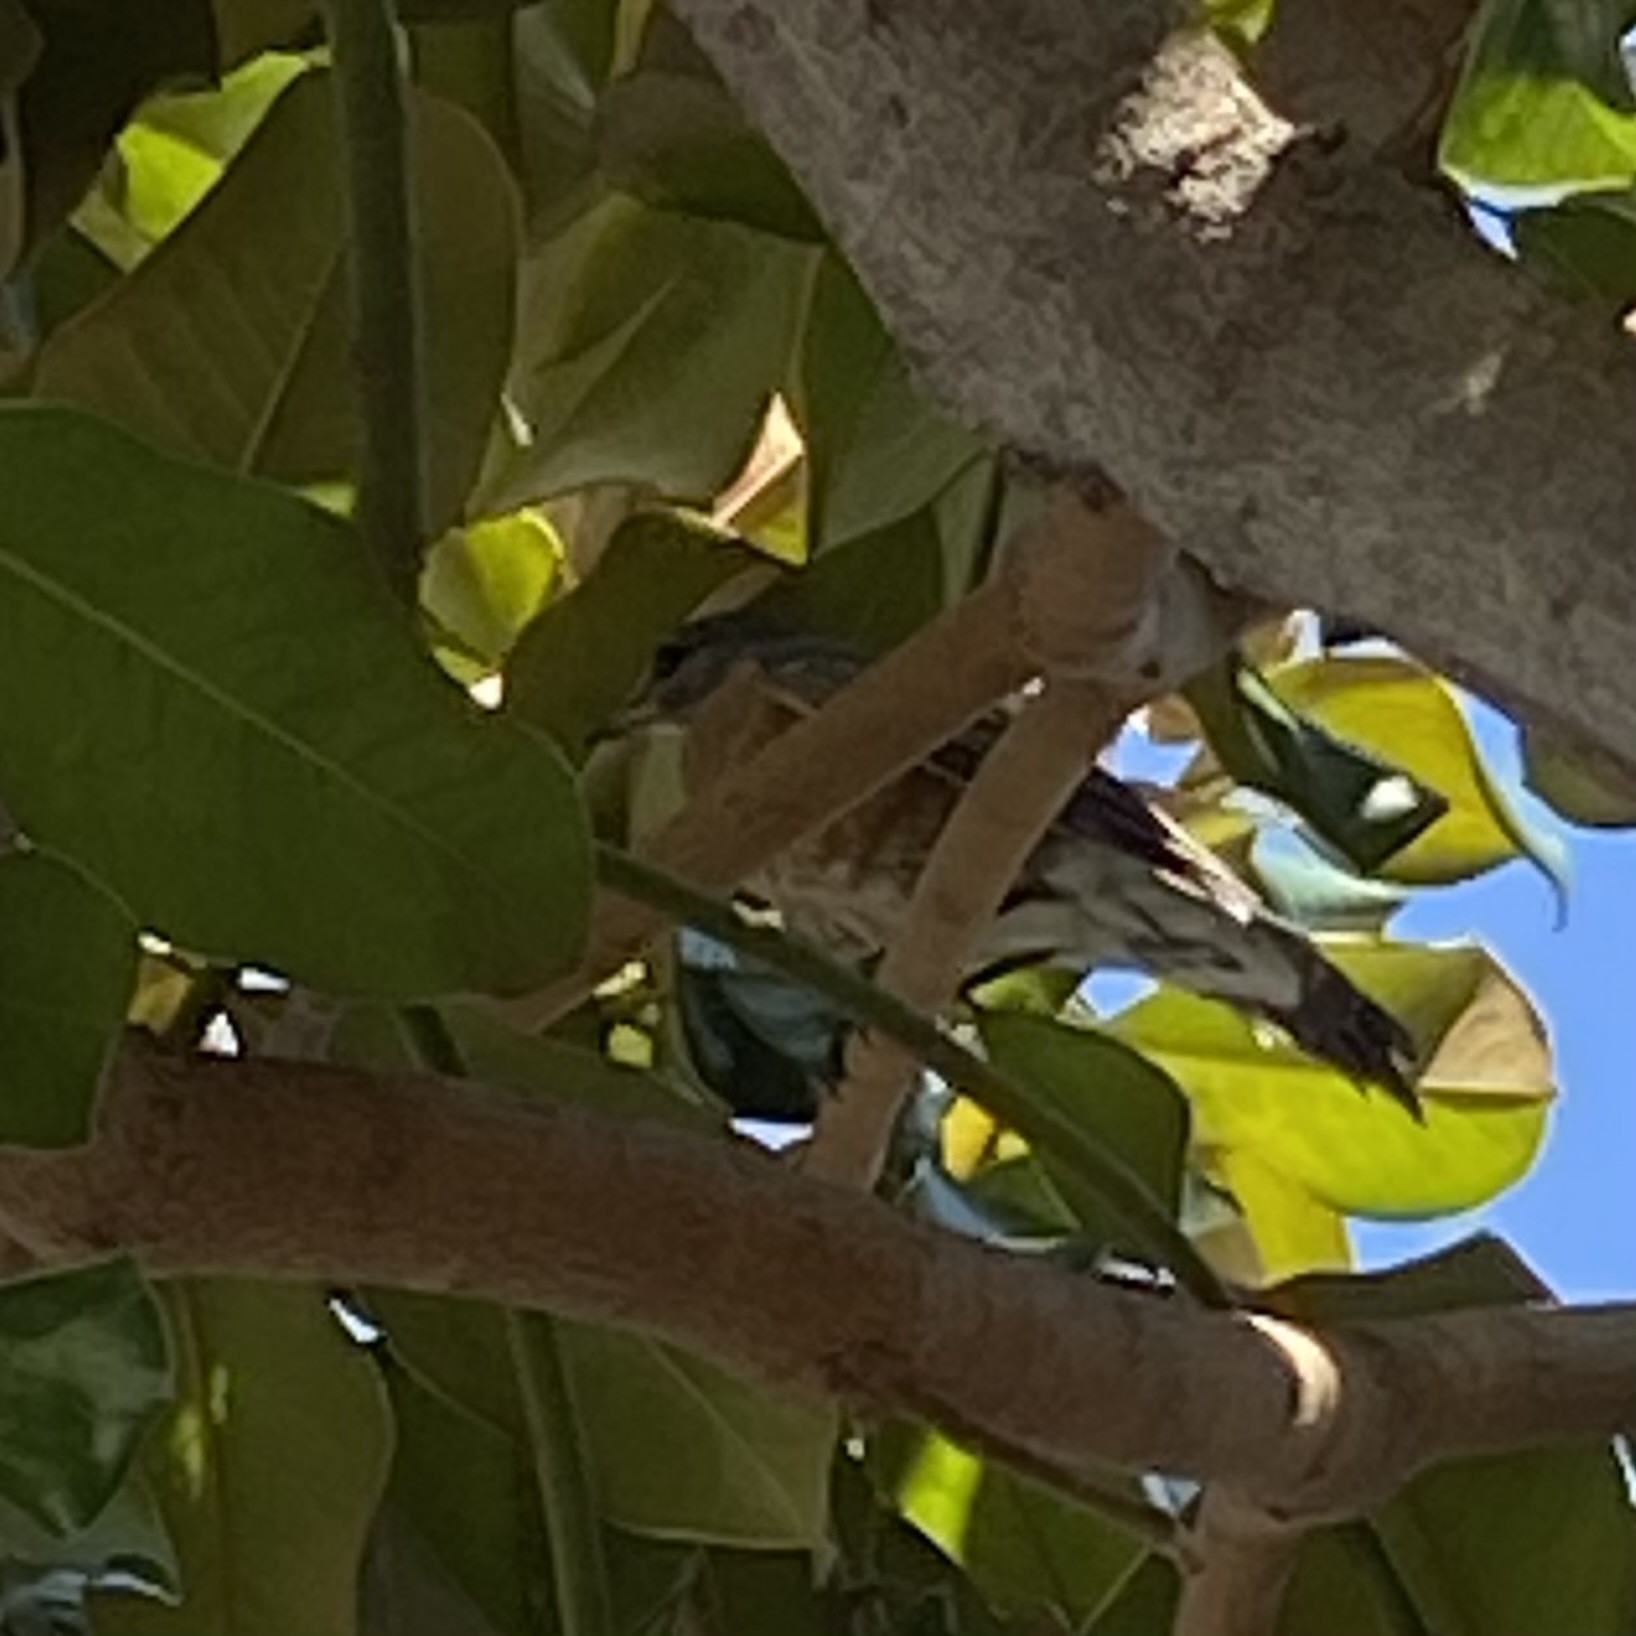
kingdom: Animalia
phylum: Chordata
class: Aves
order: Passeriformes
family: Turdidae
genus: Turdus
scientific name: Turdus migratorius
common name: American robin
